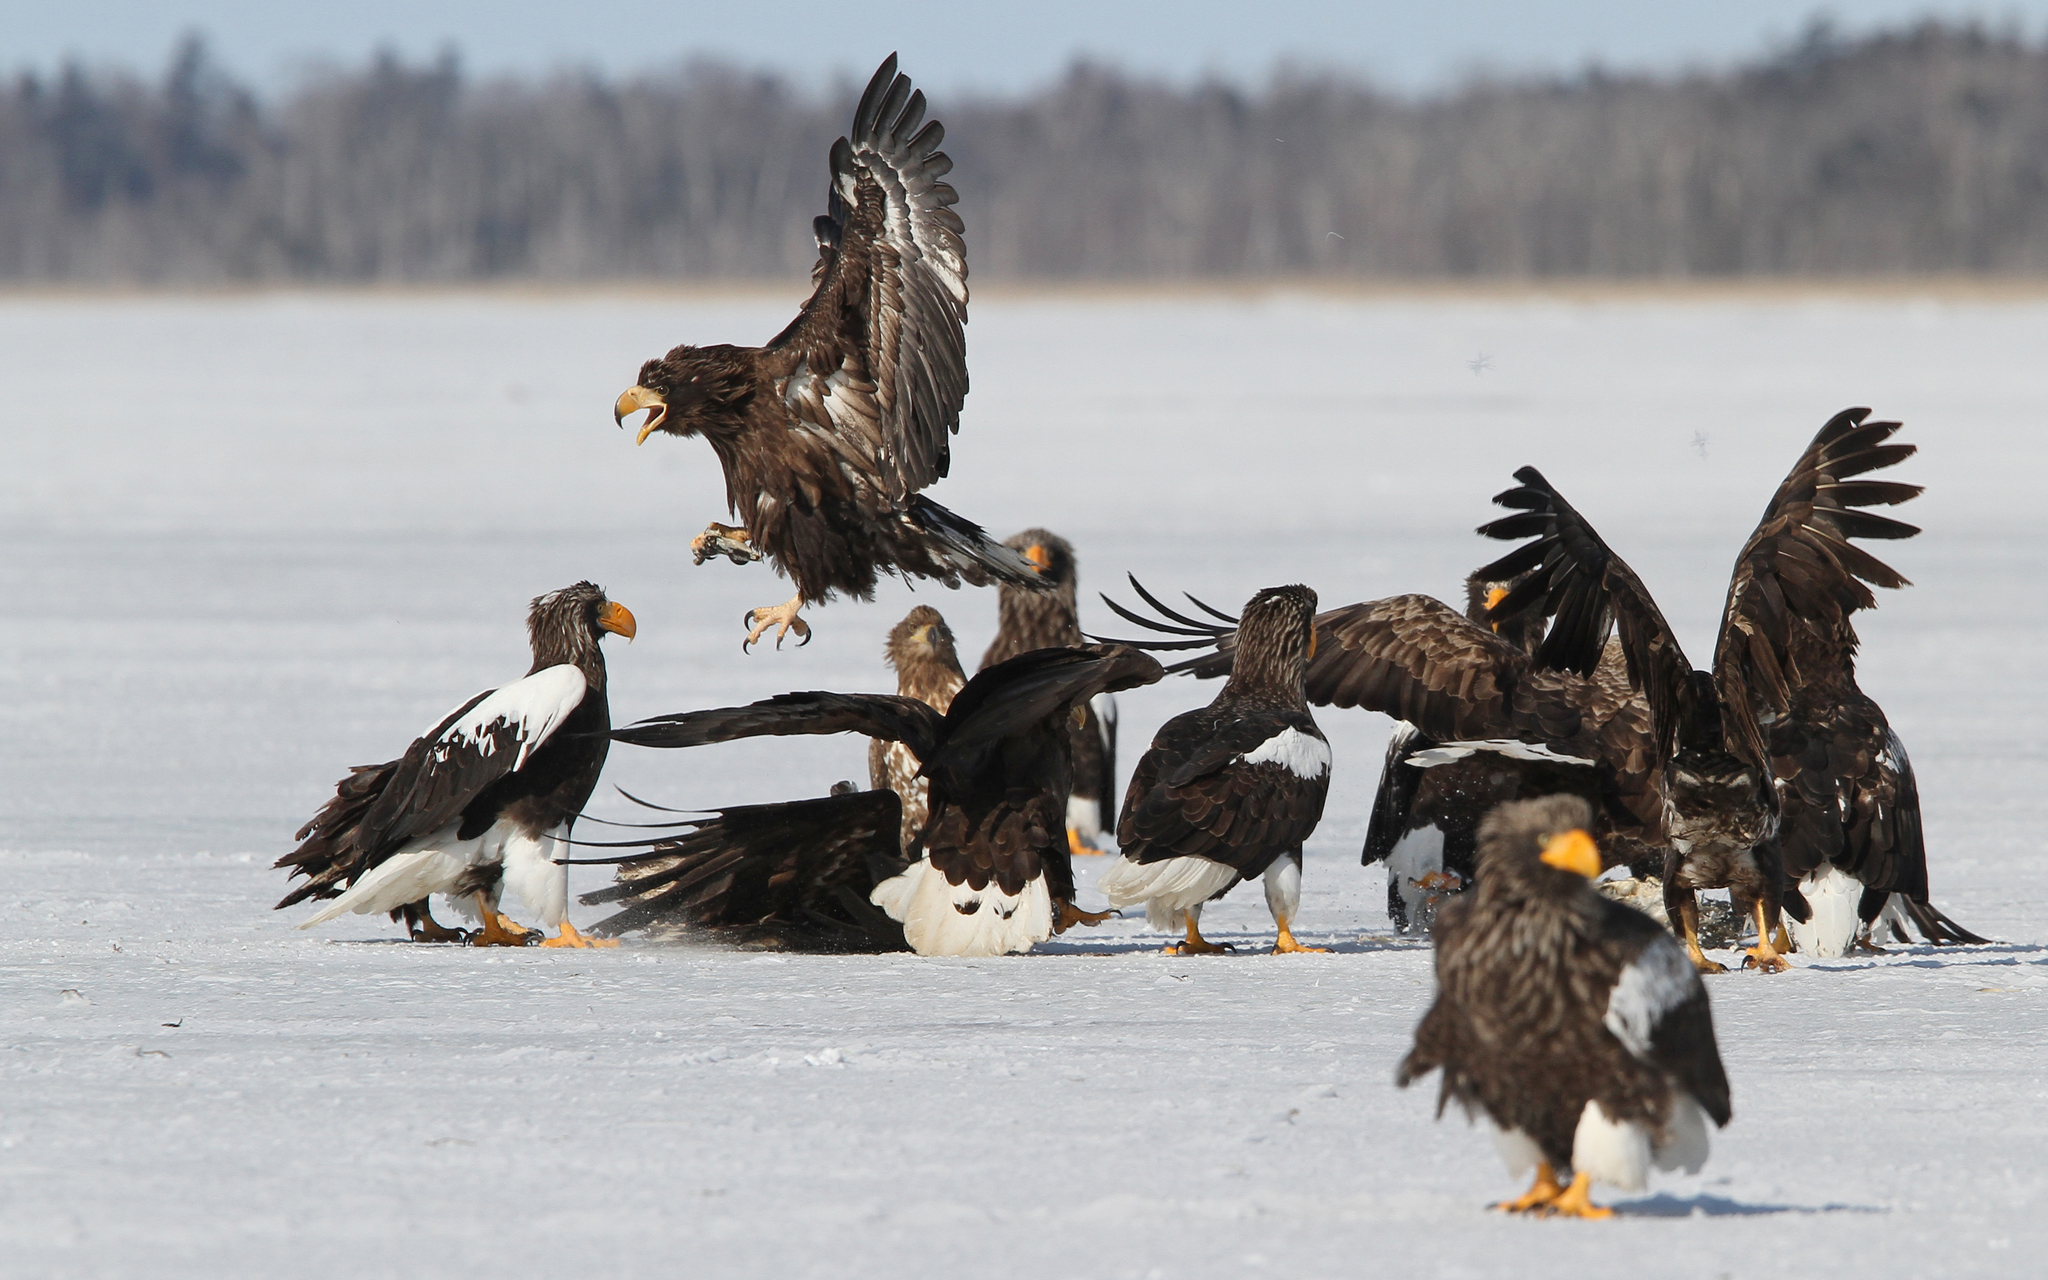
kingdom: Animalia
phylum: Chordata
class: Aves
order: Accipitriformes
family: Accipitridae
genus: Haliaeetus
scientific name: Haliaeetus pelagicus
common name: Steller's sea eagle
